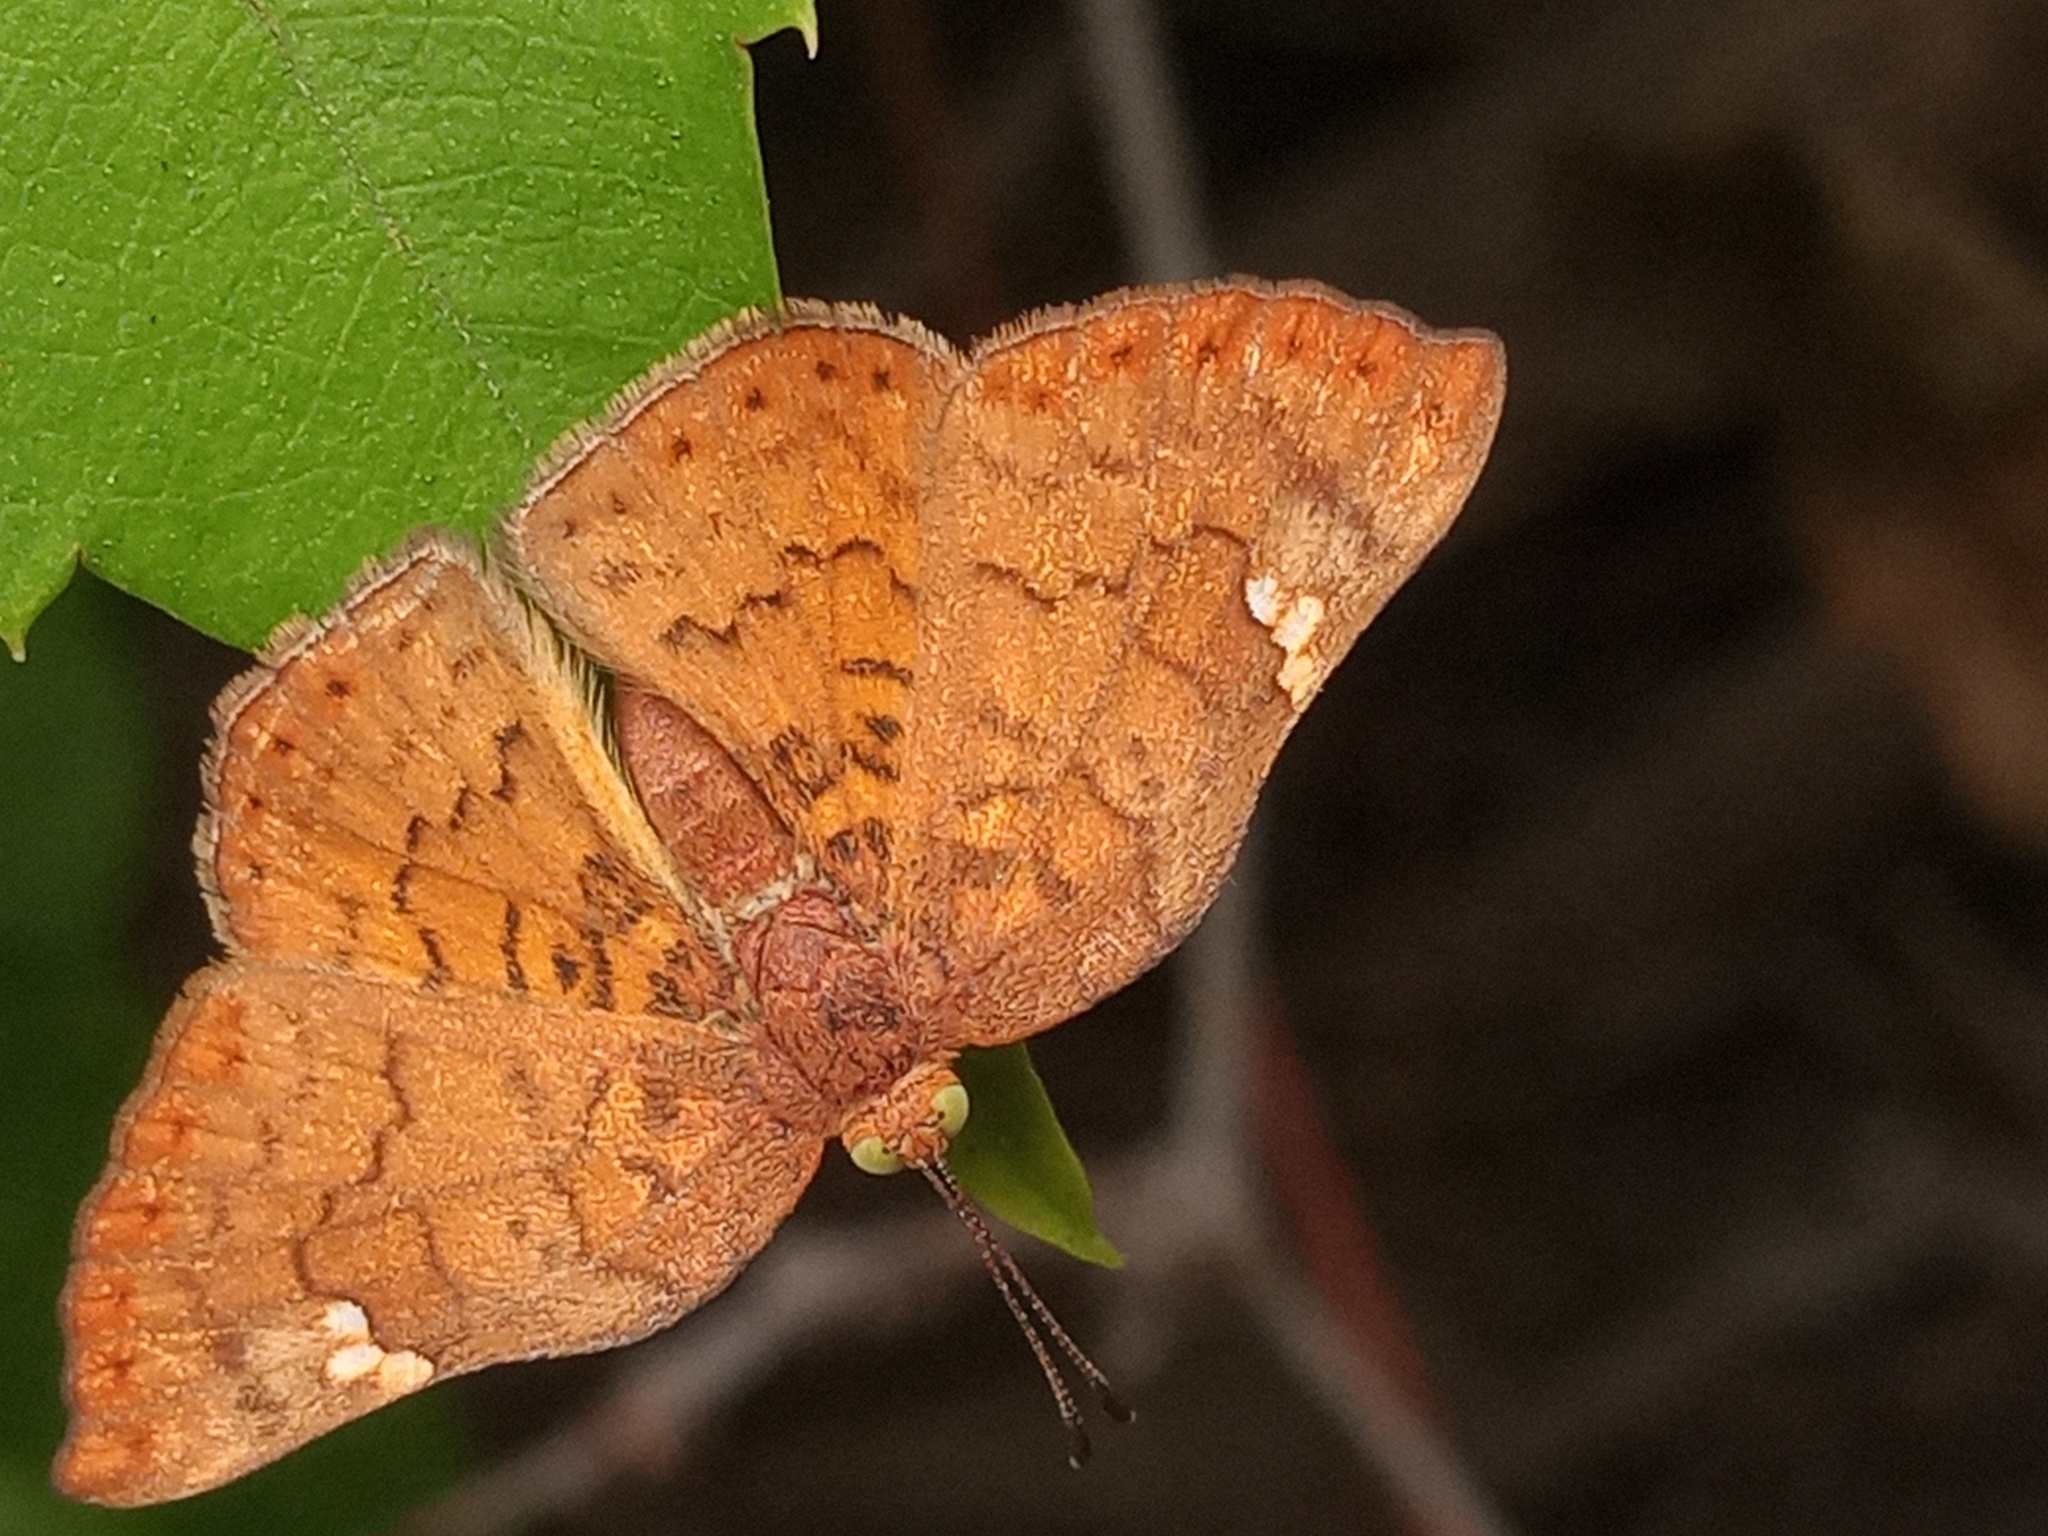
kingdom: Animalia
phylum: Arthropoda
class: Insecta
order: Lepidoptera
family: Riodinidae
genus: Curvie
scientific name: Curvie emesia
